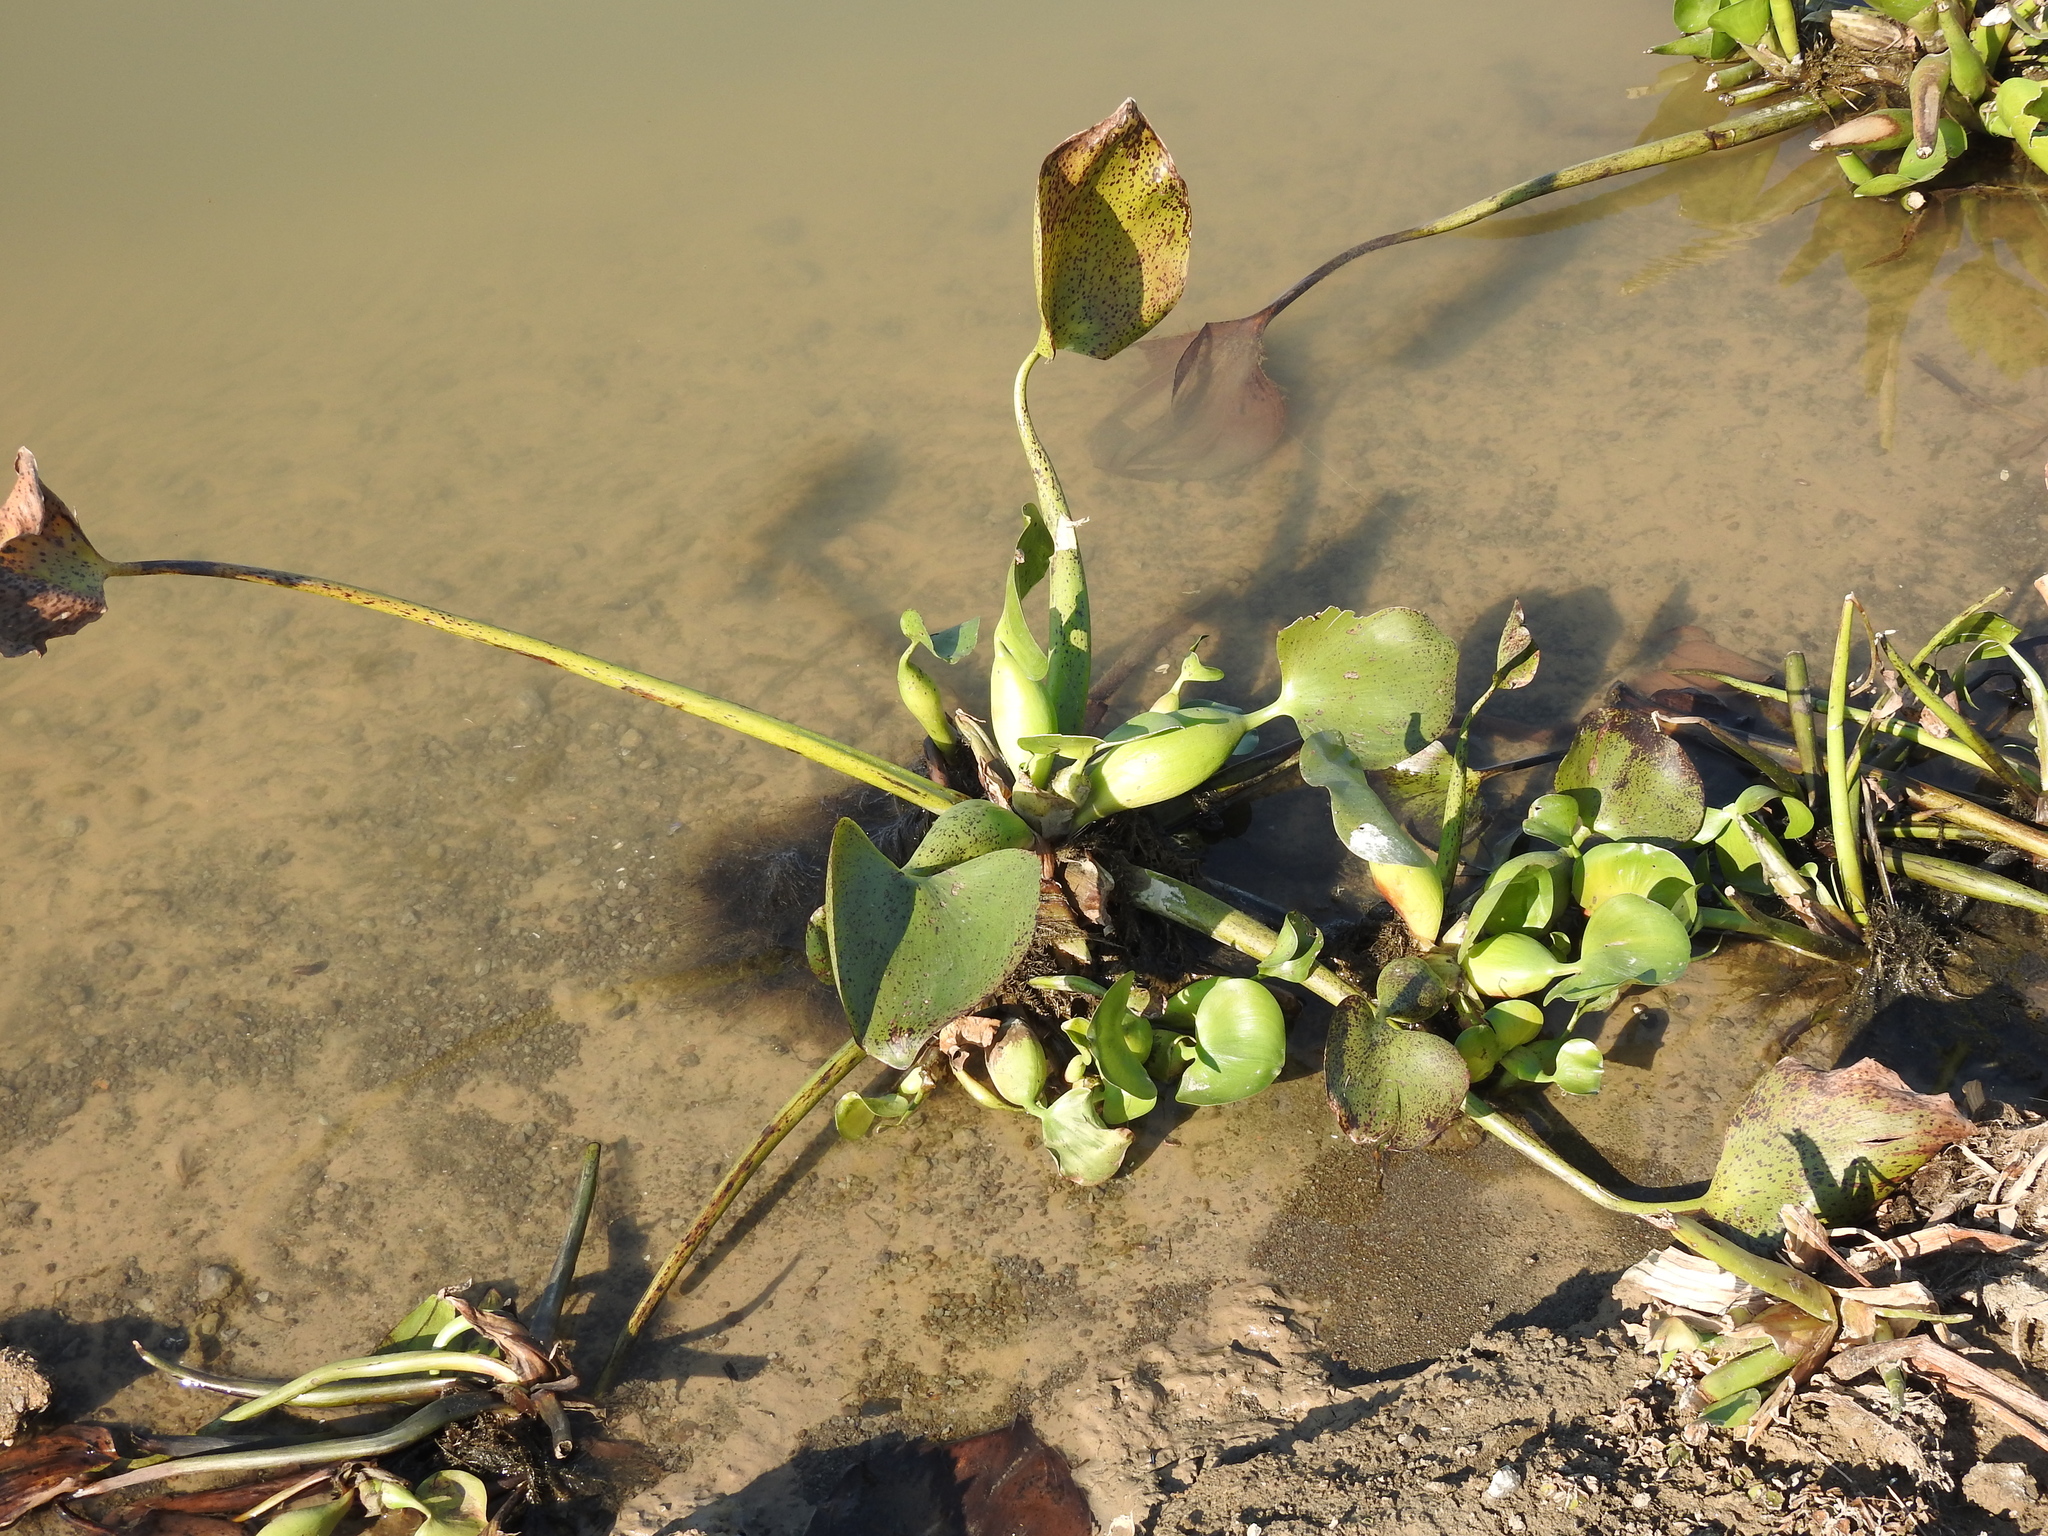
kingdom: Plantae
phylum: Tracheophyta
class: Liliopsida
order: Commelinales
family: Pontederiaceae
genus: Pontederia
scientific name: Pontederia crassipes
